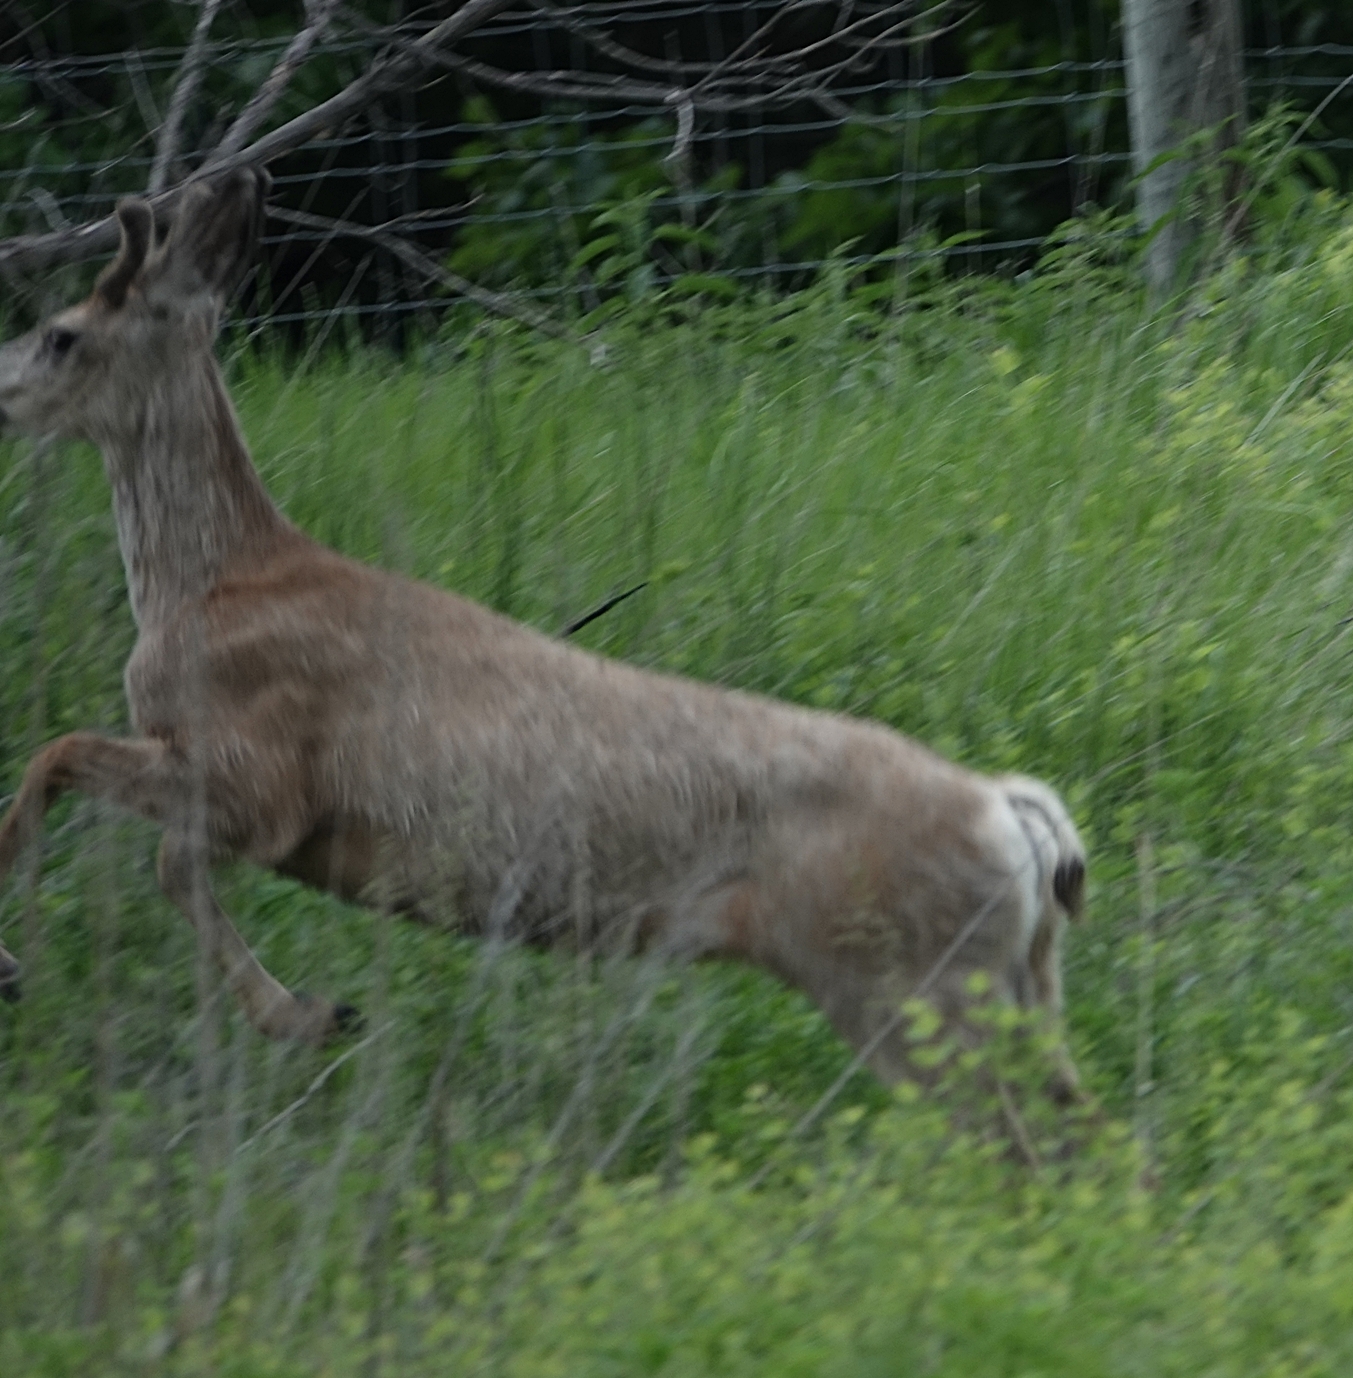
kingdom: Animalia
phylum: Chordata
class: Mammalia
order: Artiodactyla
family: Cervidae
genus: Odocoileus
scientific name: Odocoileus hemionus
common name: Mule deer
